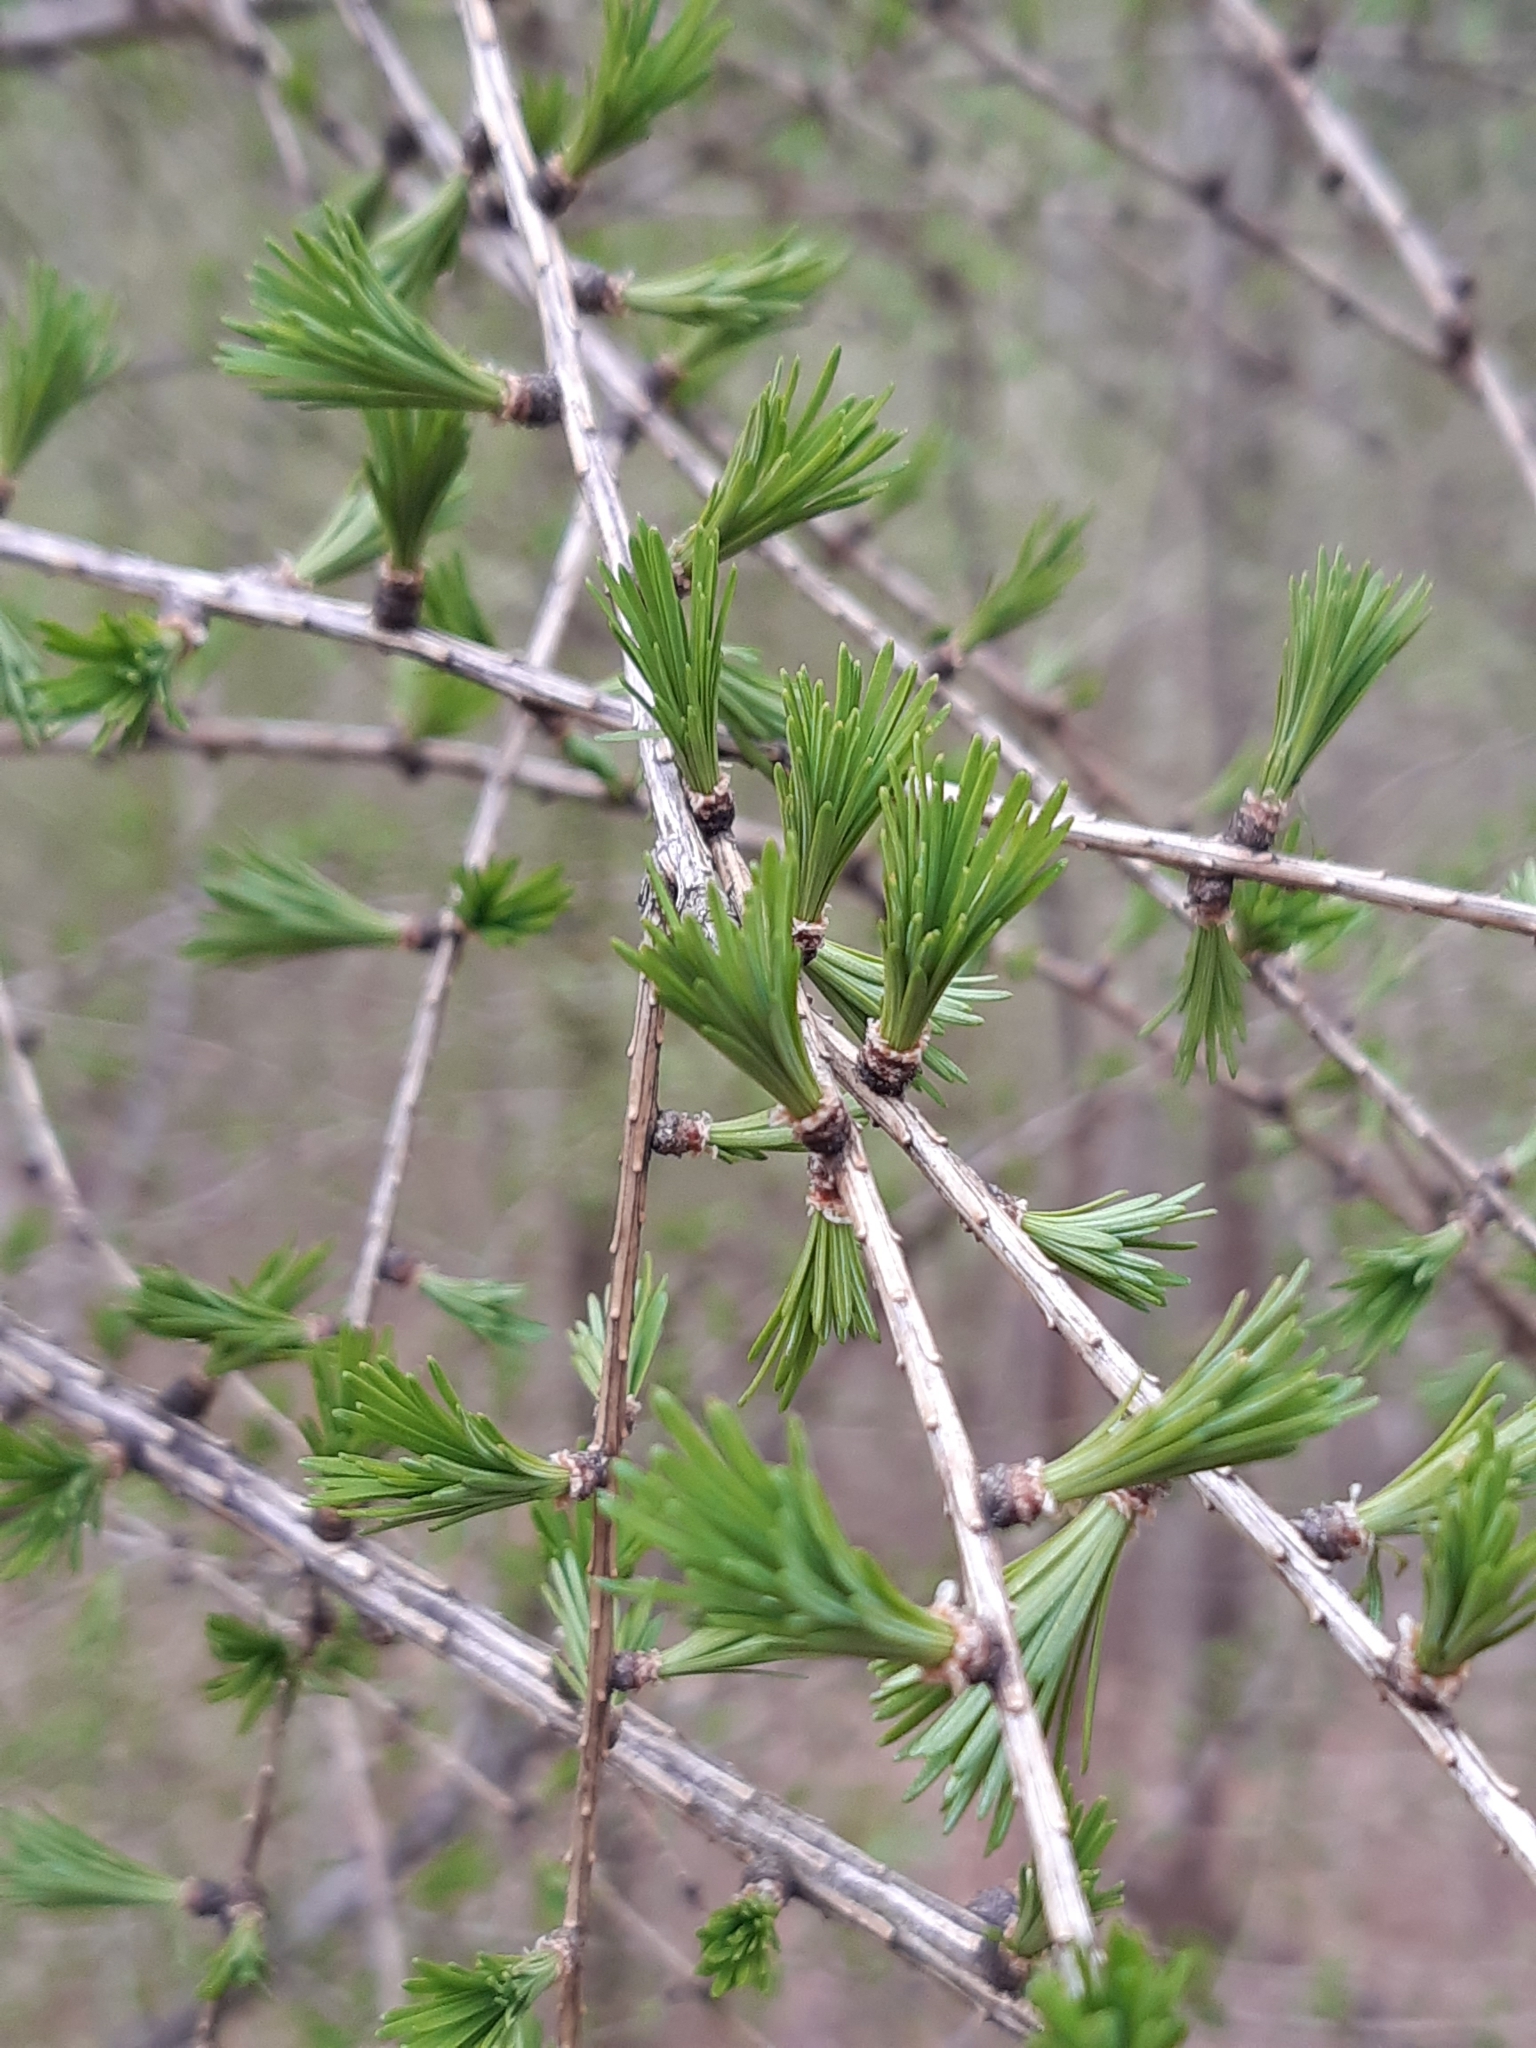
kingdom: Plantae
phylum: Tracheophyta
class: Pinopsida
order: Pinales
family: Pinaceae
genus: Larix
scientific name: Larix decidua
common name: European larch
